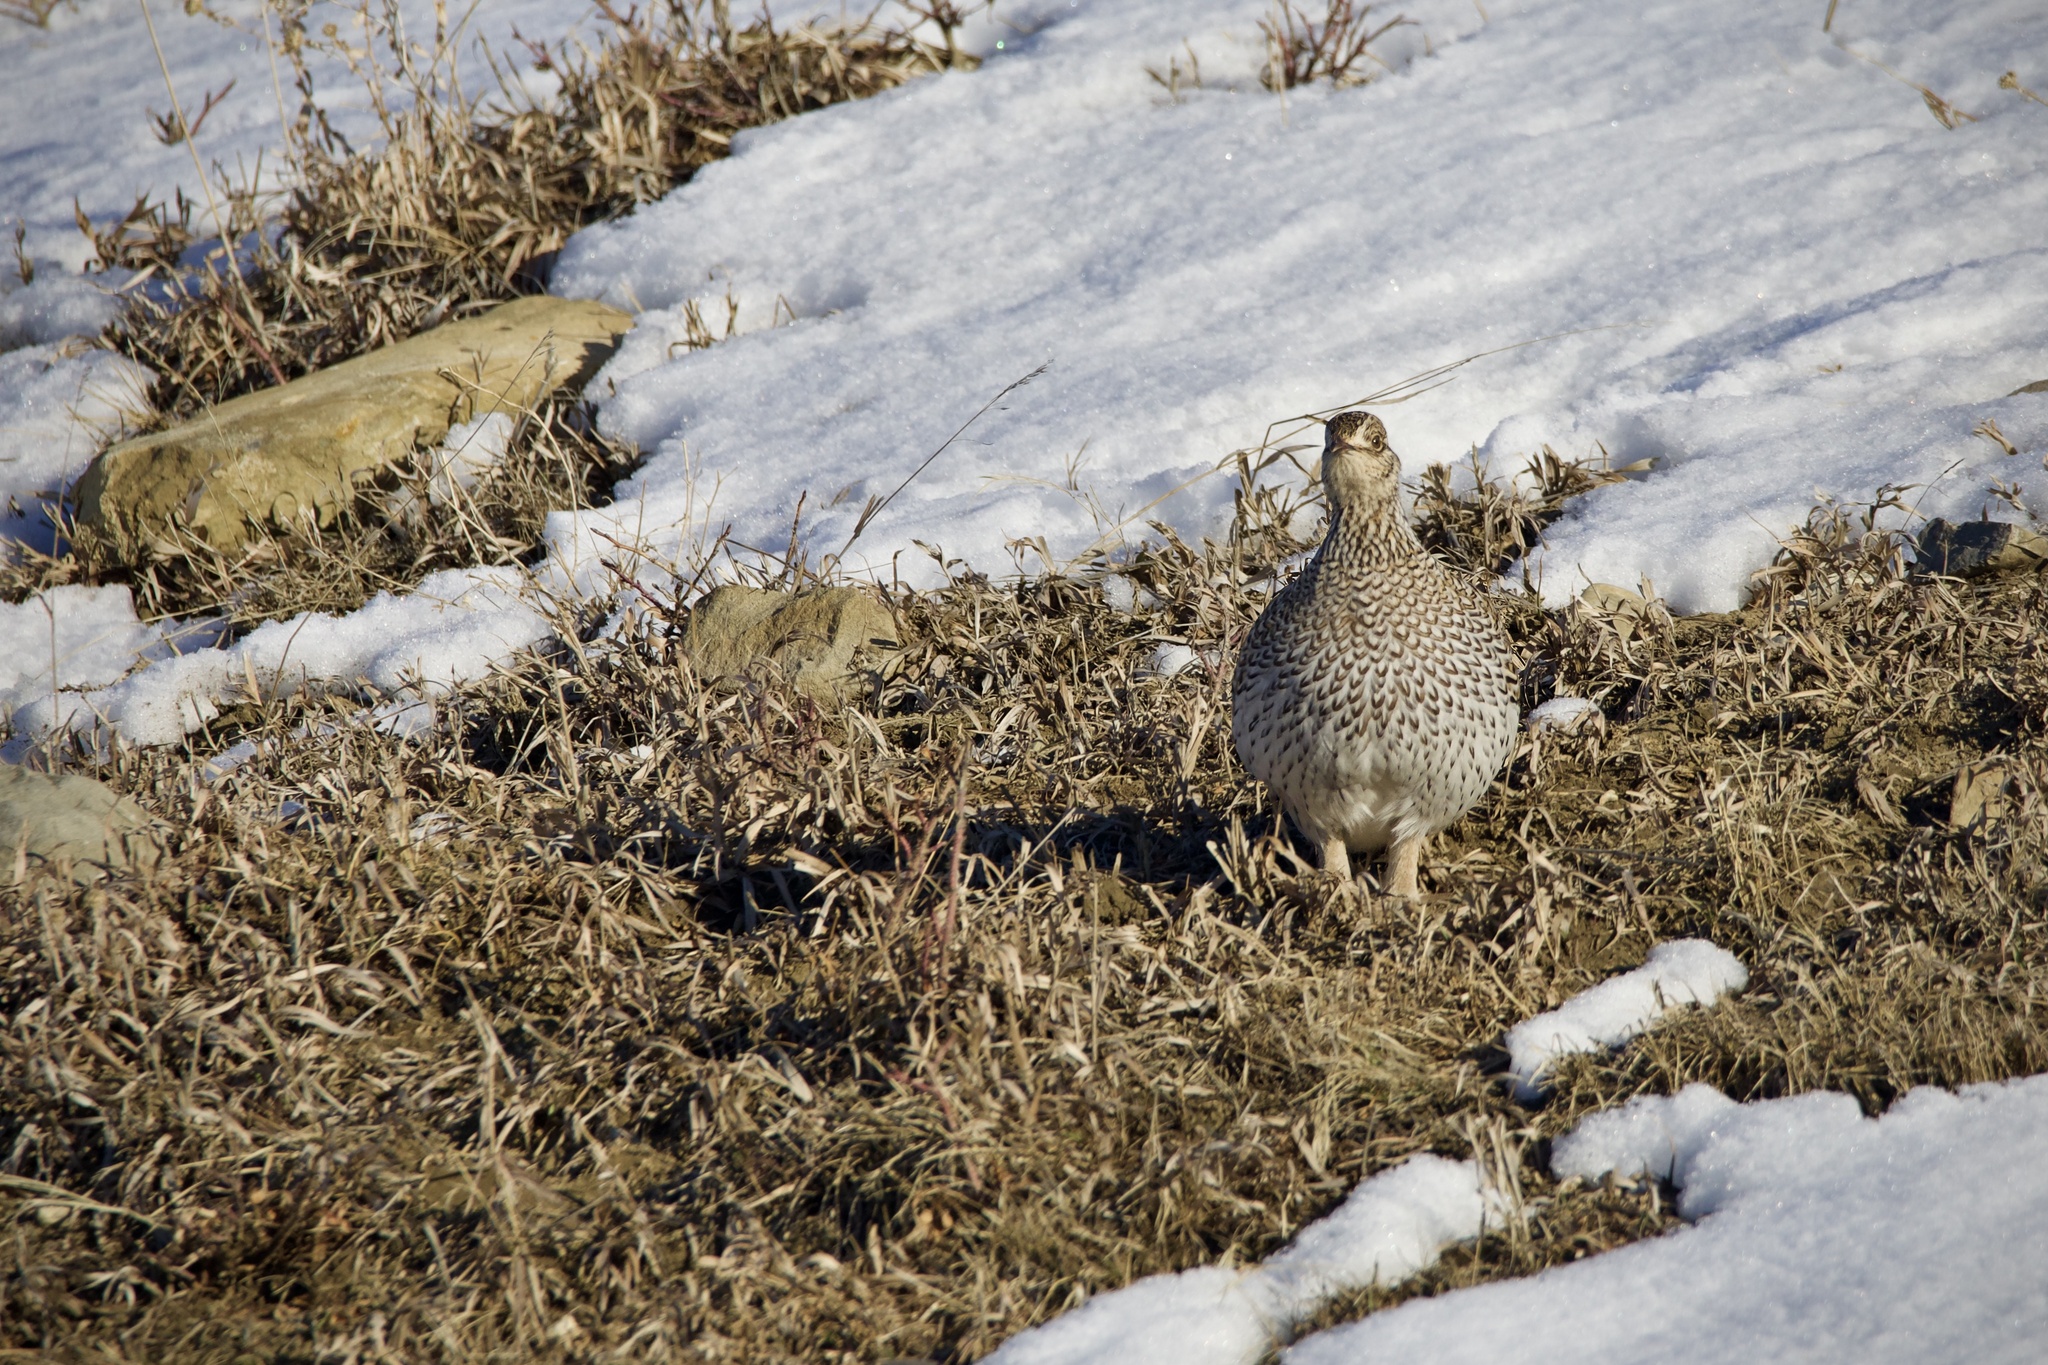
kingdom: Animalia
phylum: Chordata
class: Aves
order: Galliformes
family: Phasianidae
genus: Tympanuchus
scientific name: Tympanuchus phasianellus
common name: Sharp-tailed grouse
